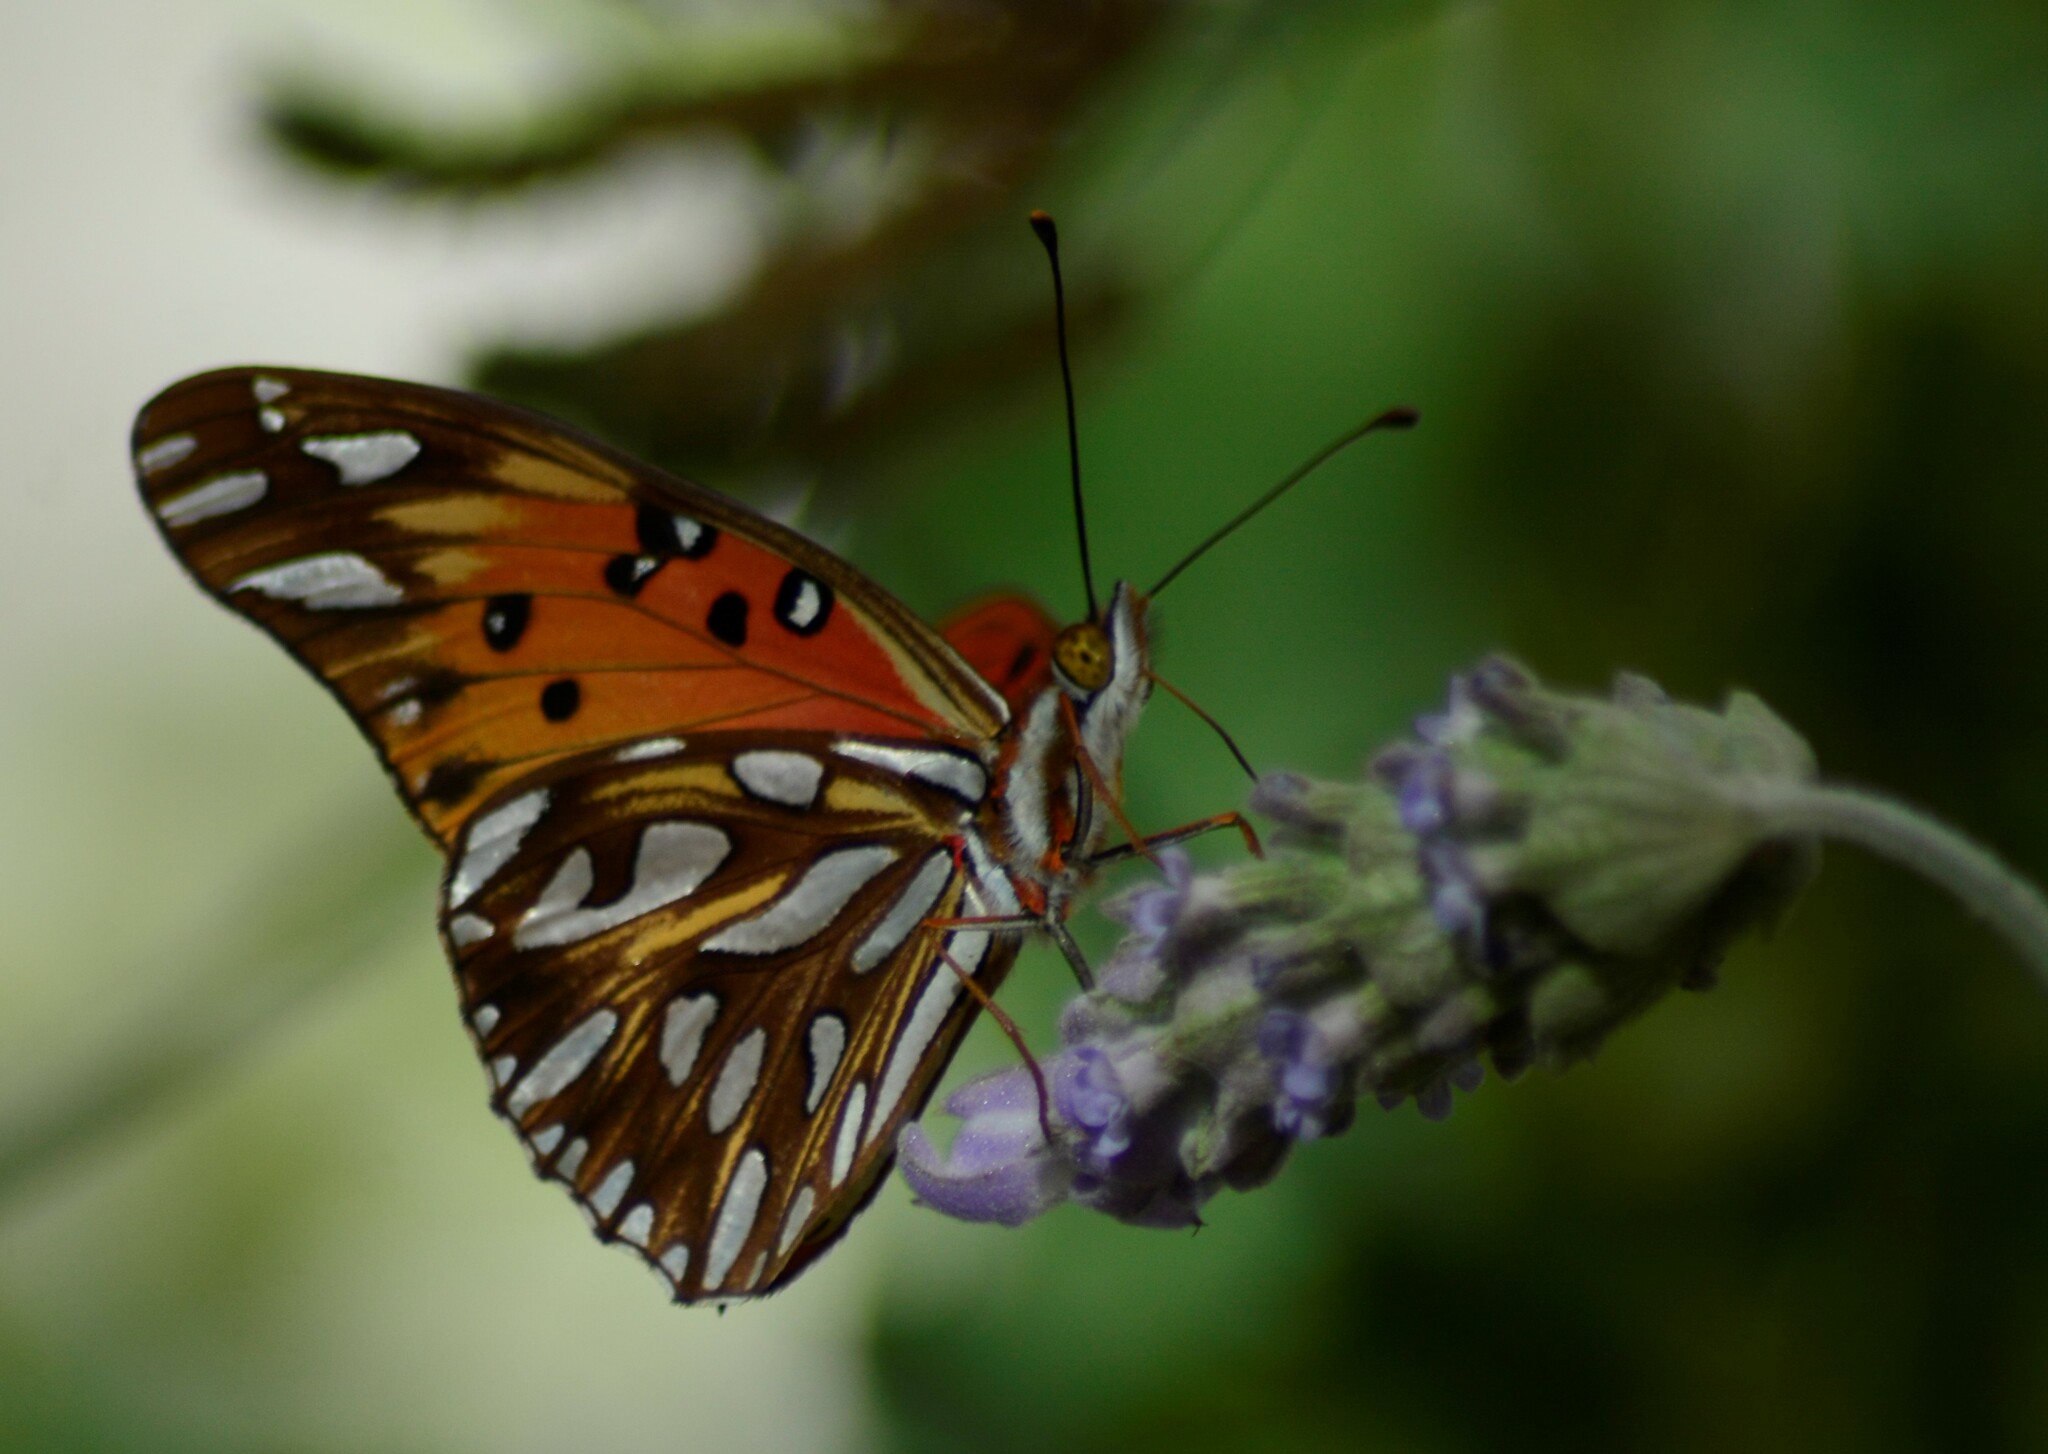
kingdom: Animalia
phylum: Arthropoda
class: Insecta
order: Lepidoptera
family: Nymphalidae
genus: Dione
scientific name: Dione vanillae
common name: Gulf fritillary
